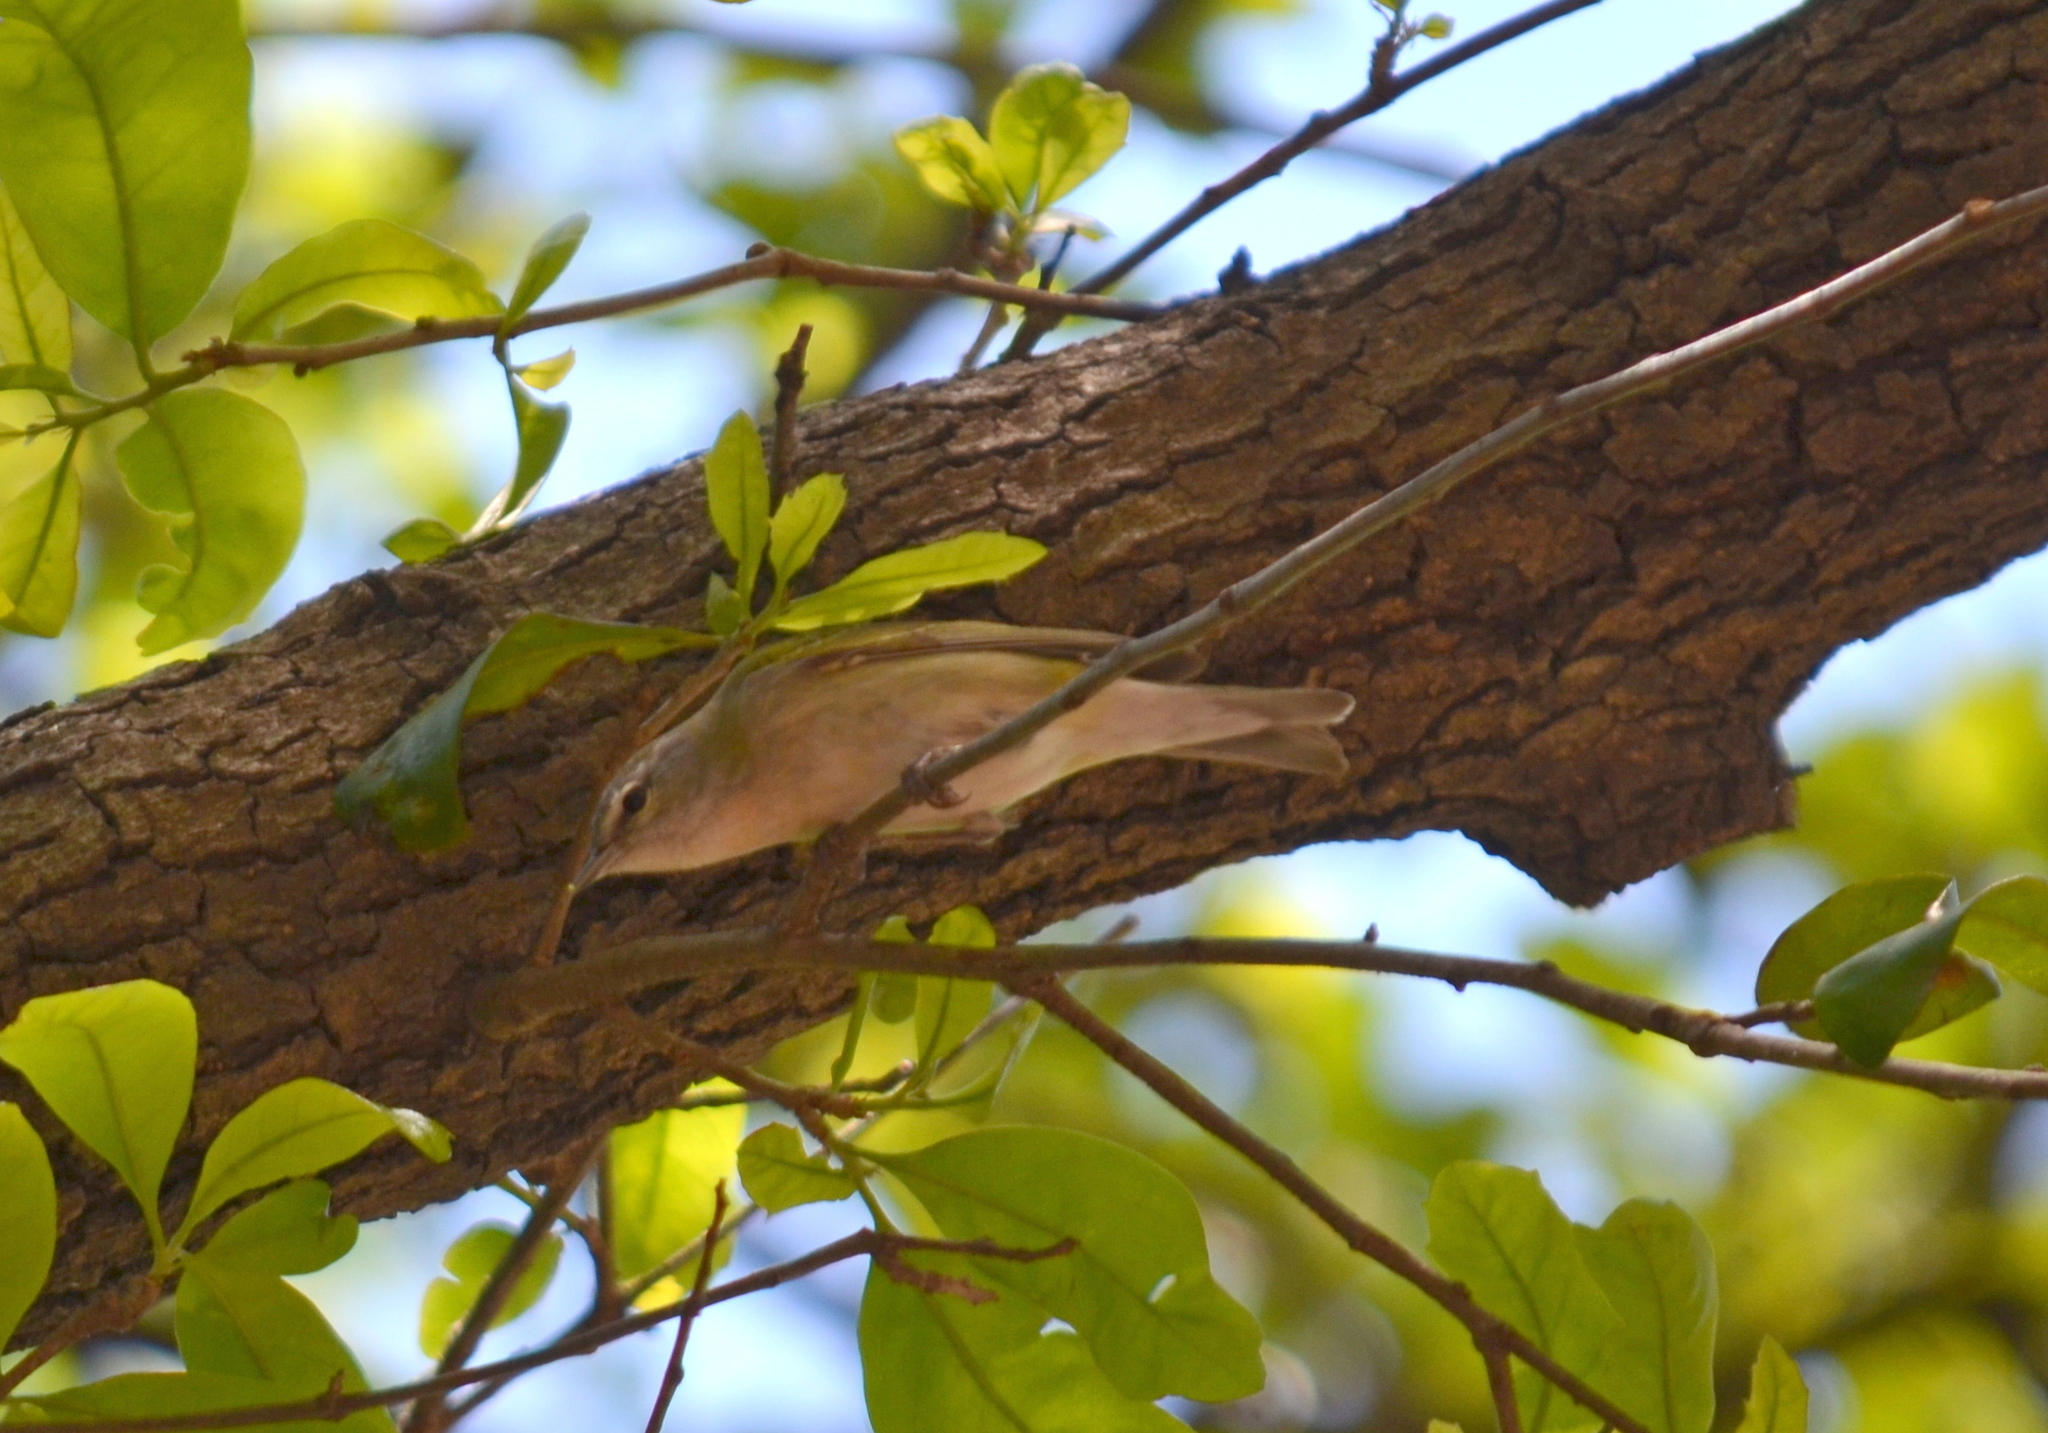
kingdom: Animalia
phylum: Chordata
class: Aves
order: Passeriformes
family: Parulidae
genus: Leiothlypis
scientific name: Leiothlypis peregrina
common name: Tennessee warbler
